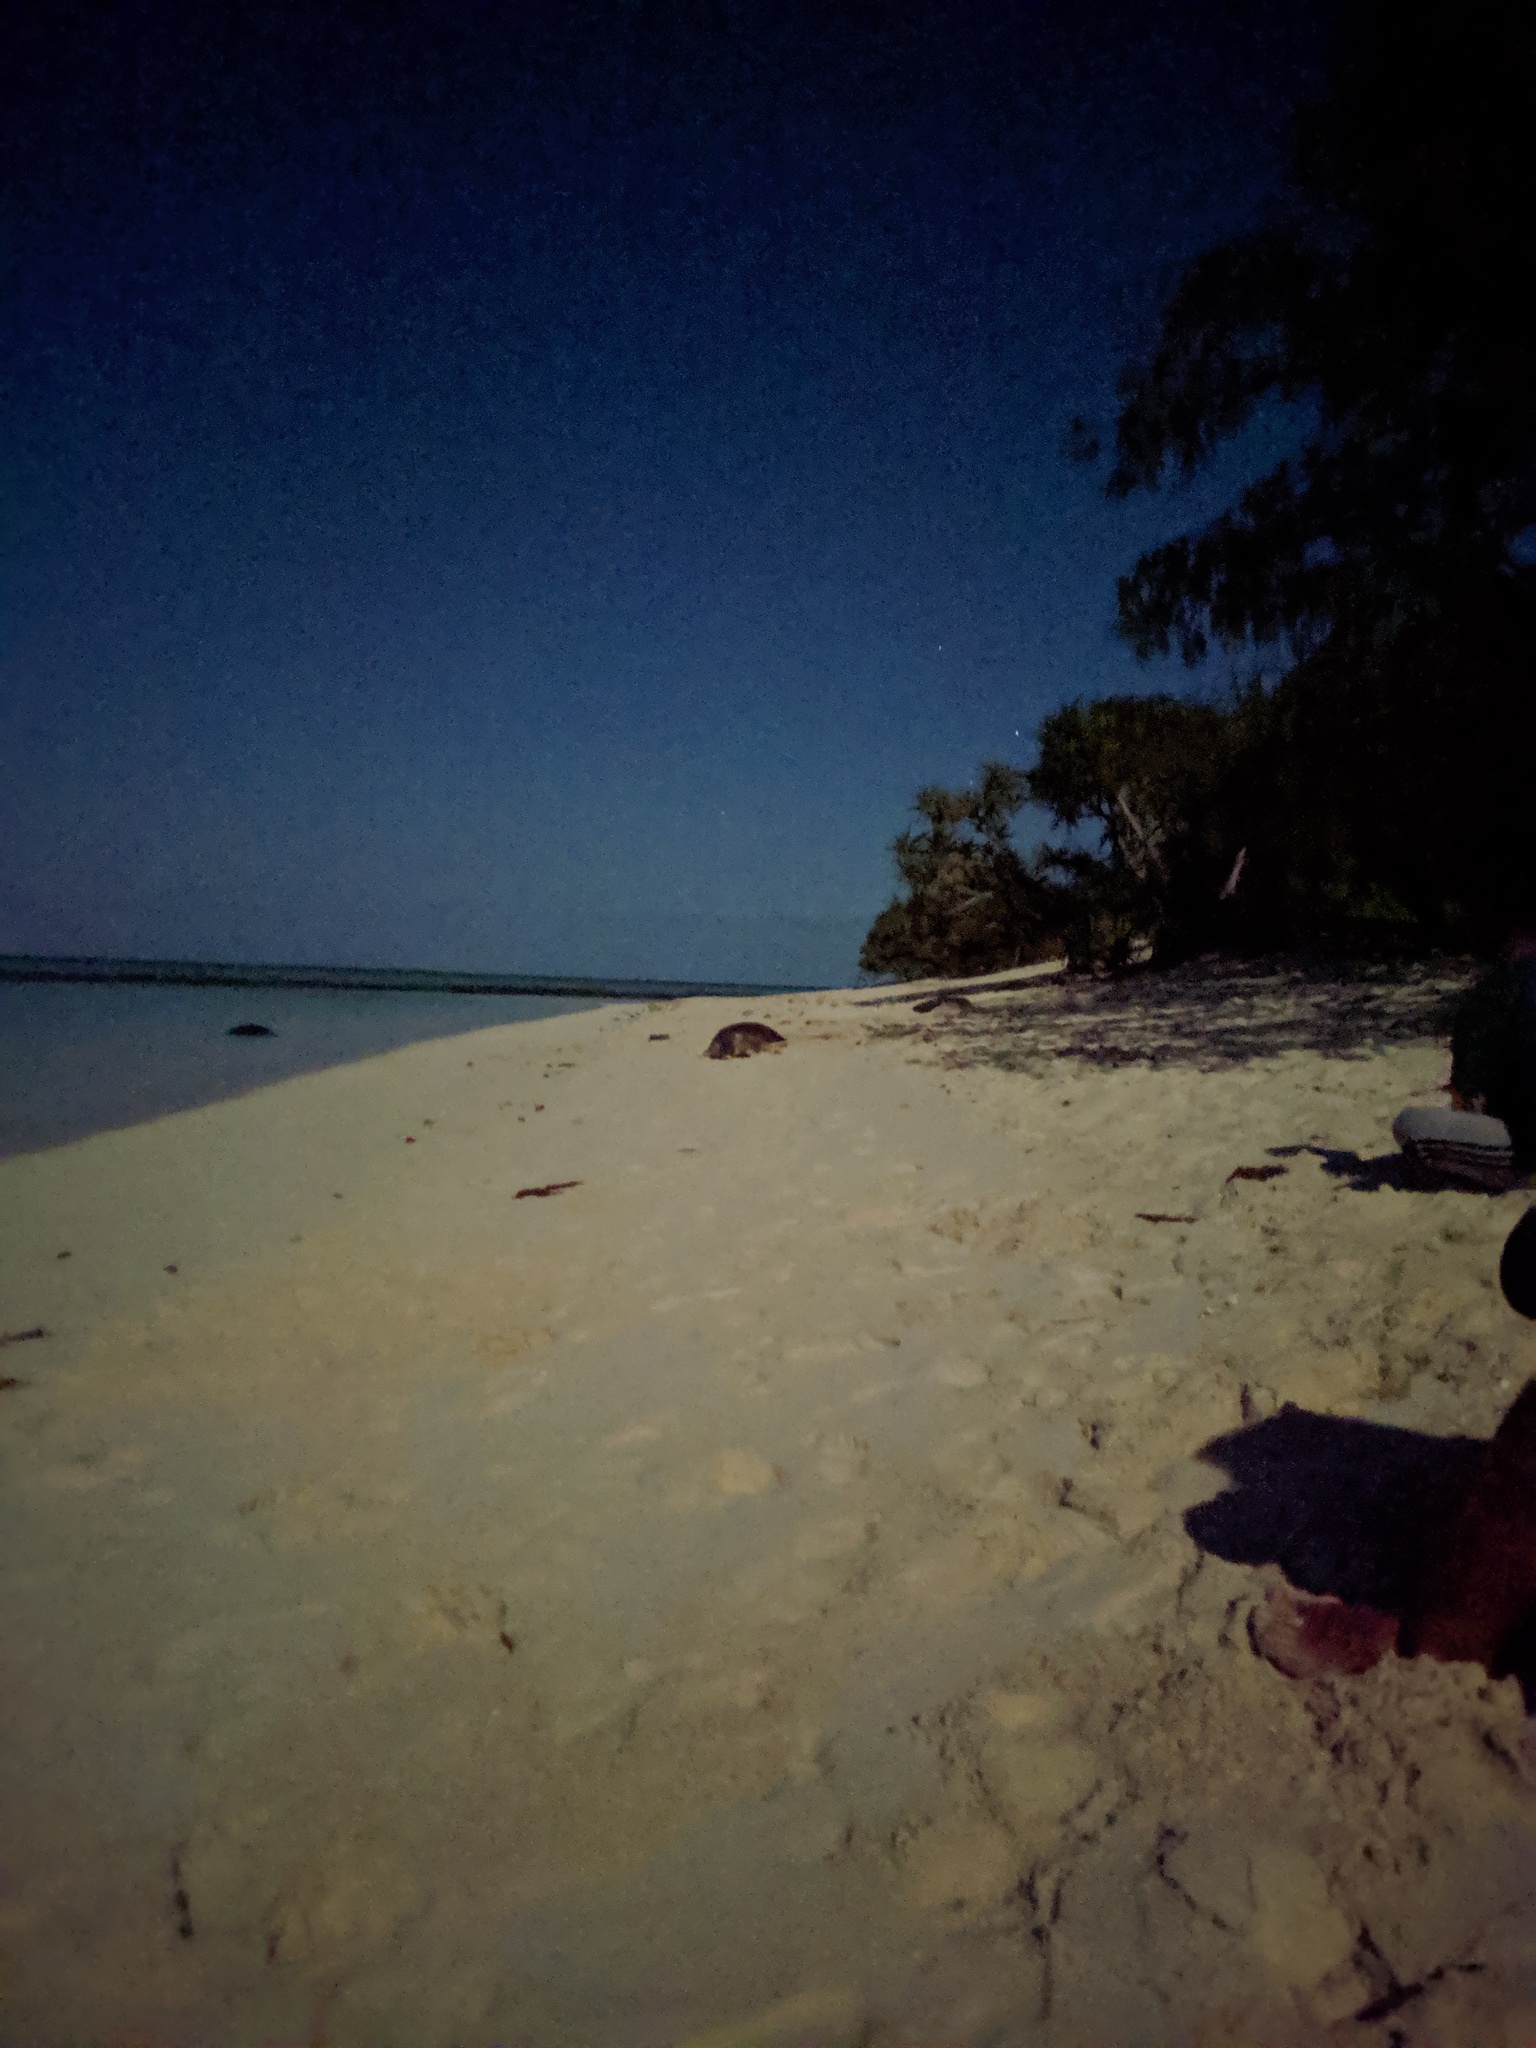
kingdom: Animalia
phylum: Chordata
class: Testudines
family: Cheloniidae
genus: Chelonia
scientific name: Chelonia mydas
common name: Green turtle
